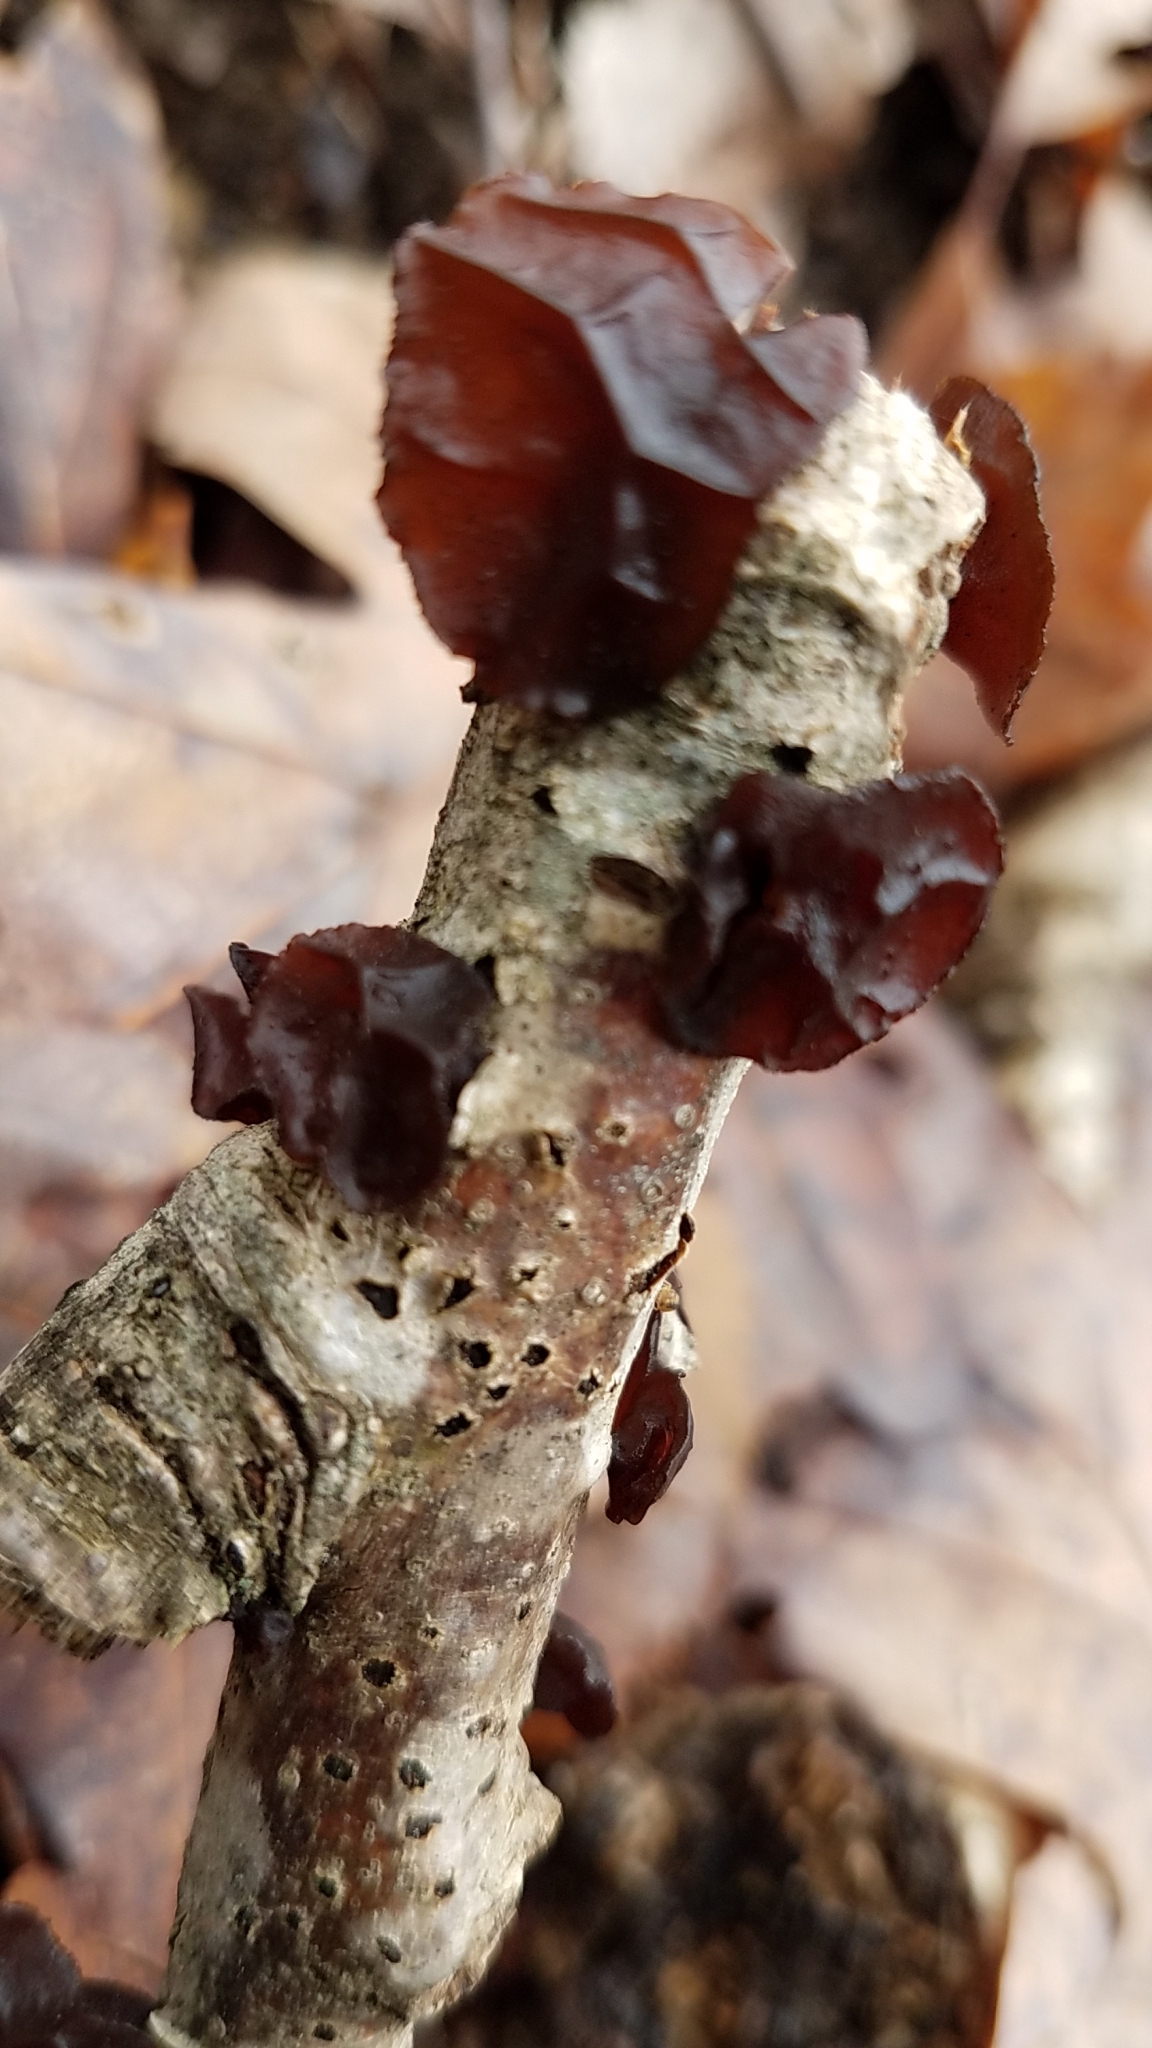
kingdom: Fungi
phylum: Basidiomycota
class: Agaricomycetes
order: Auriculariales
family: Auriculariaceae
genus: Exidia
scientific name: Exidia
